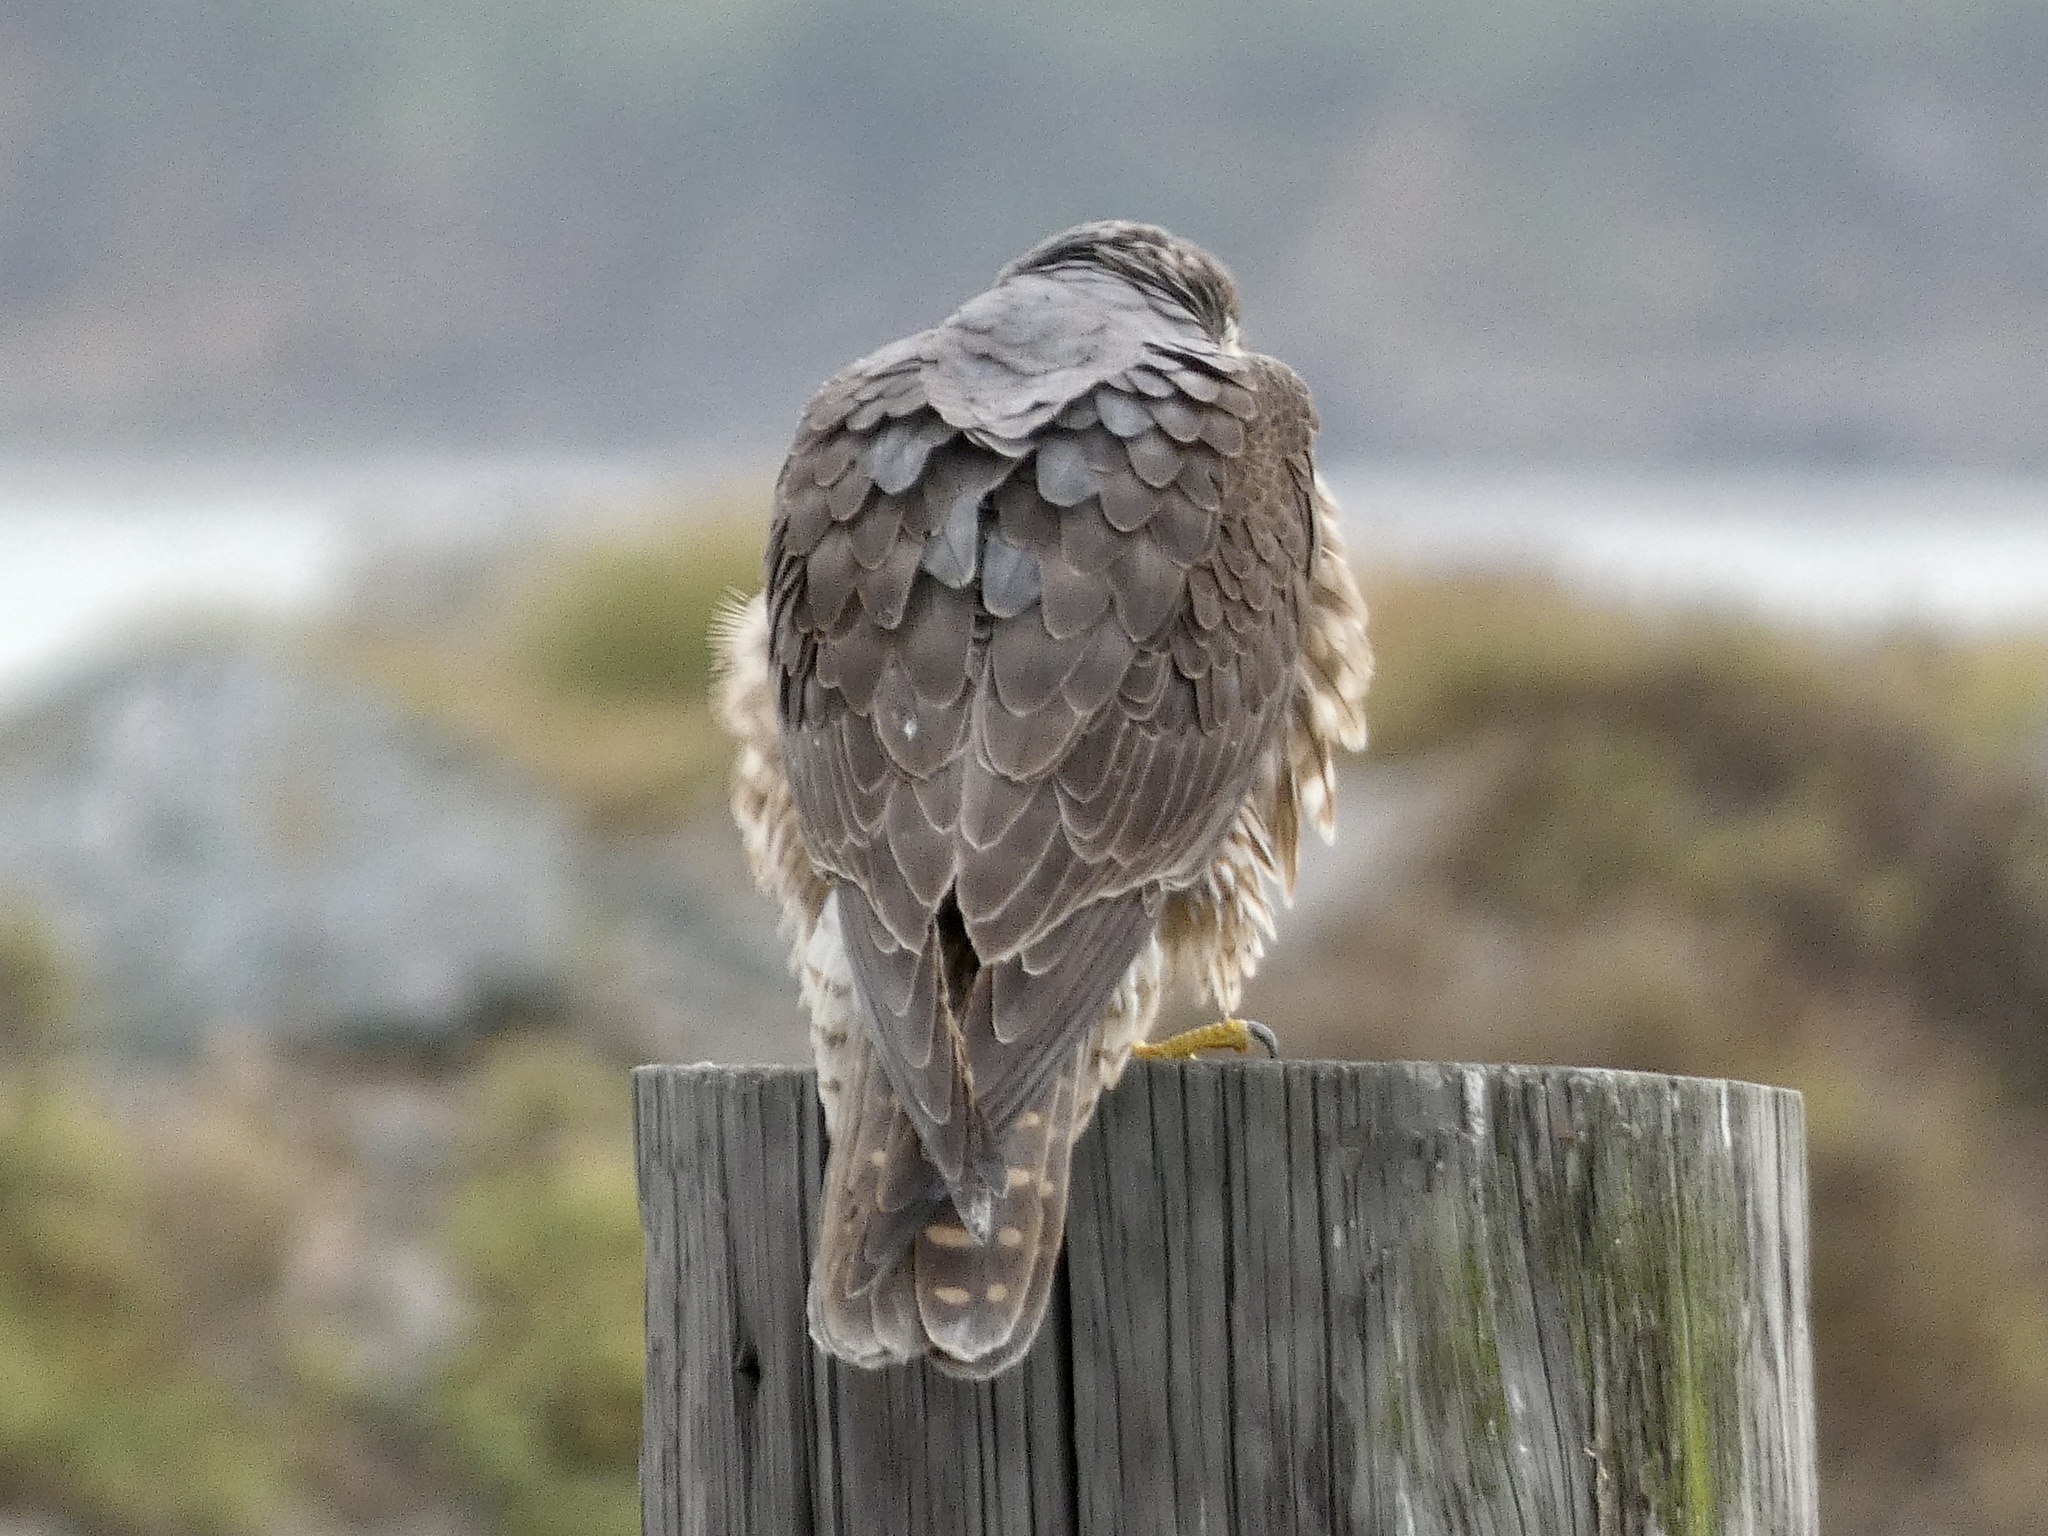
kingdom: Animalia
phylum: Chordata
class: Aves
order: Falconiformes
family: Falconidae
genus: Falco
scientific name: Falco peregrinus
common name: Peregrine falcon
